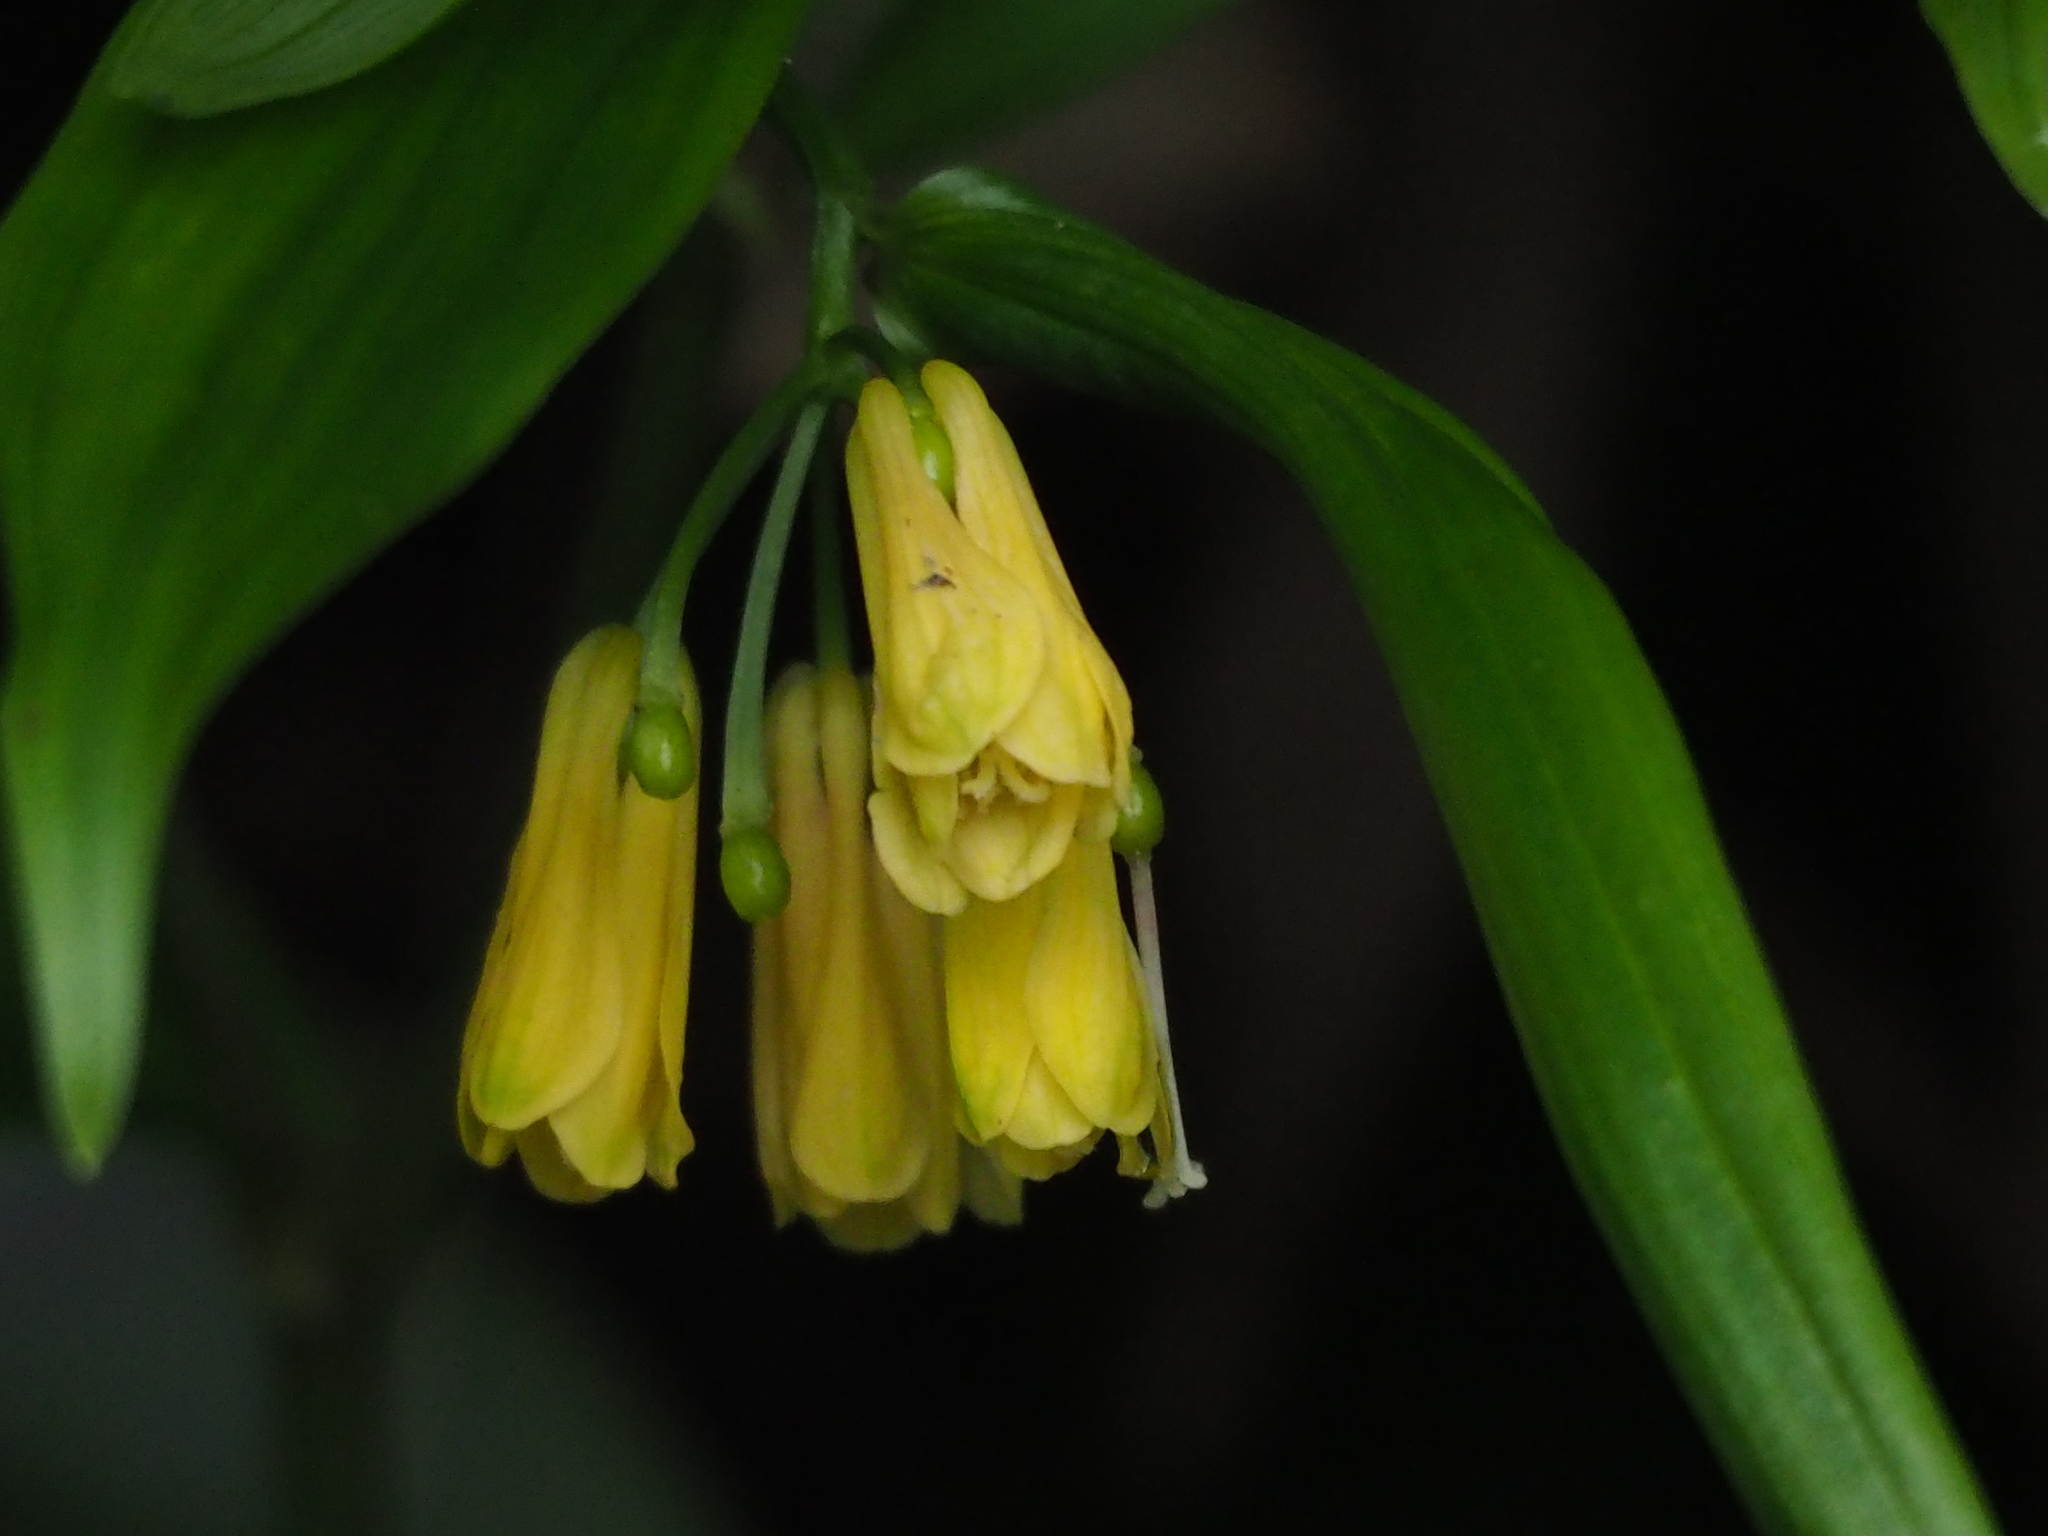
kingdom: Plantae
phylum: Tracheophyta
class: Liliopsida
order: Liliales
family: Colchicaceae
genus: Disporum
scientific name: Disporum shimadae
